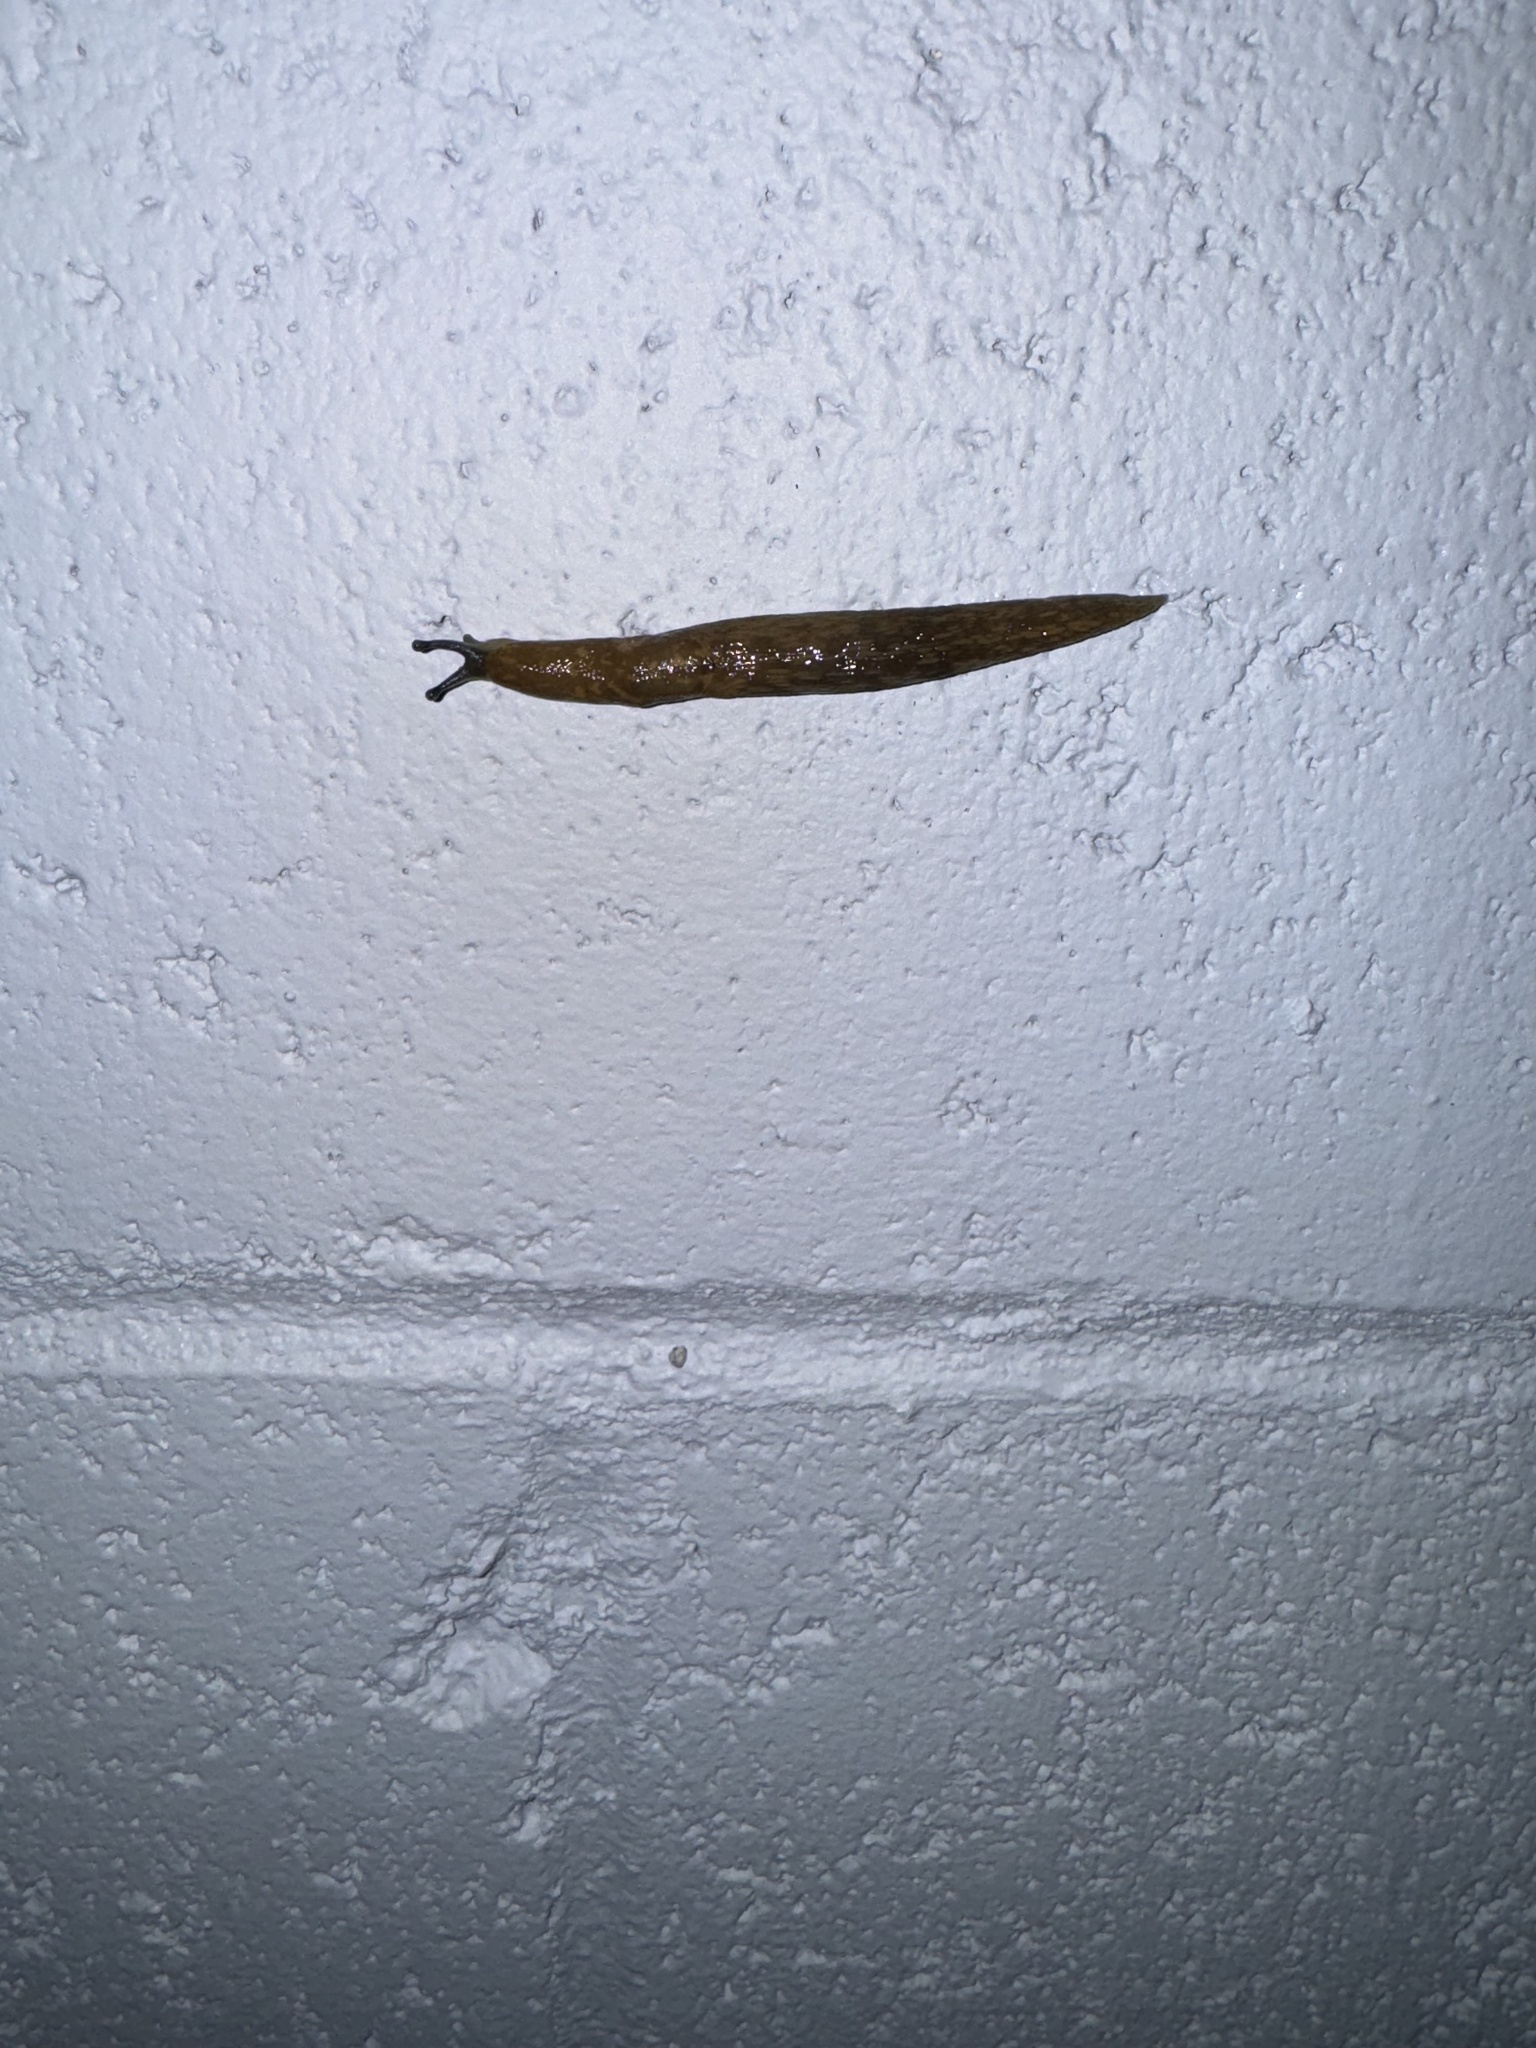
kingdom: Animalia
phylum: Mollusca
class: Gastropoda
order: Stylommatophora
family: Limacidae
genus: Limacus
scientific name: Limacus flavus
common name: Yellow gardenslug
